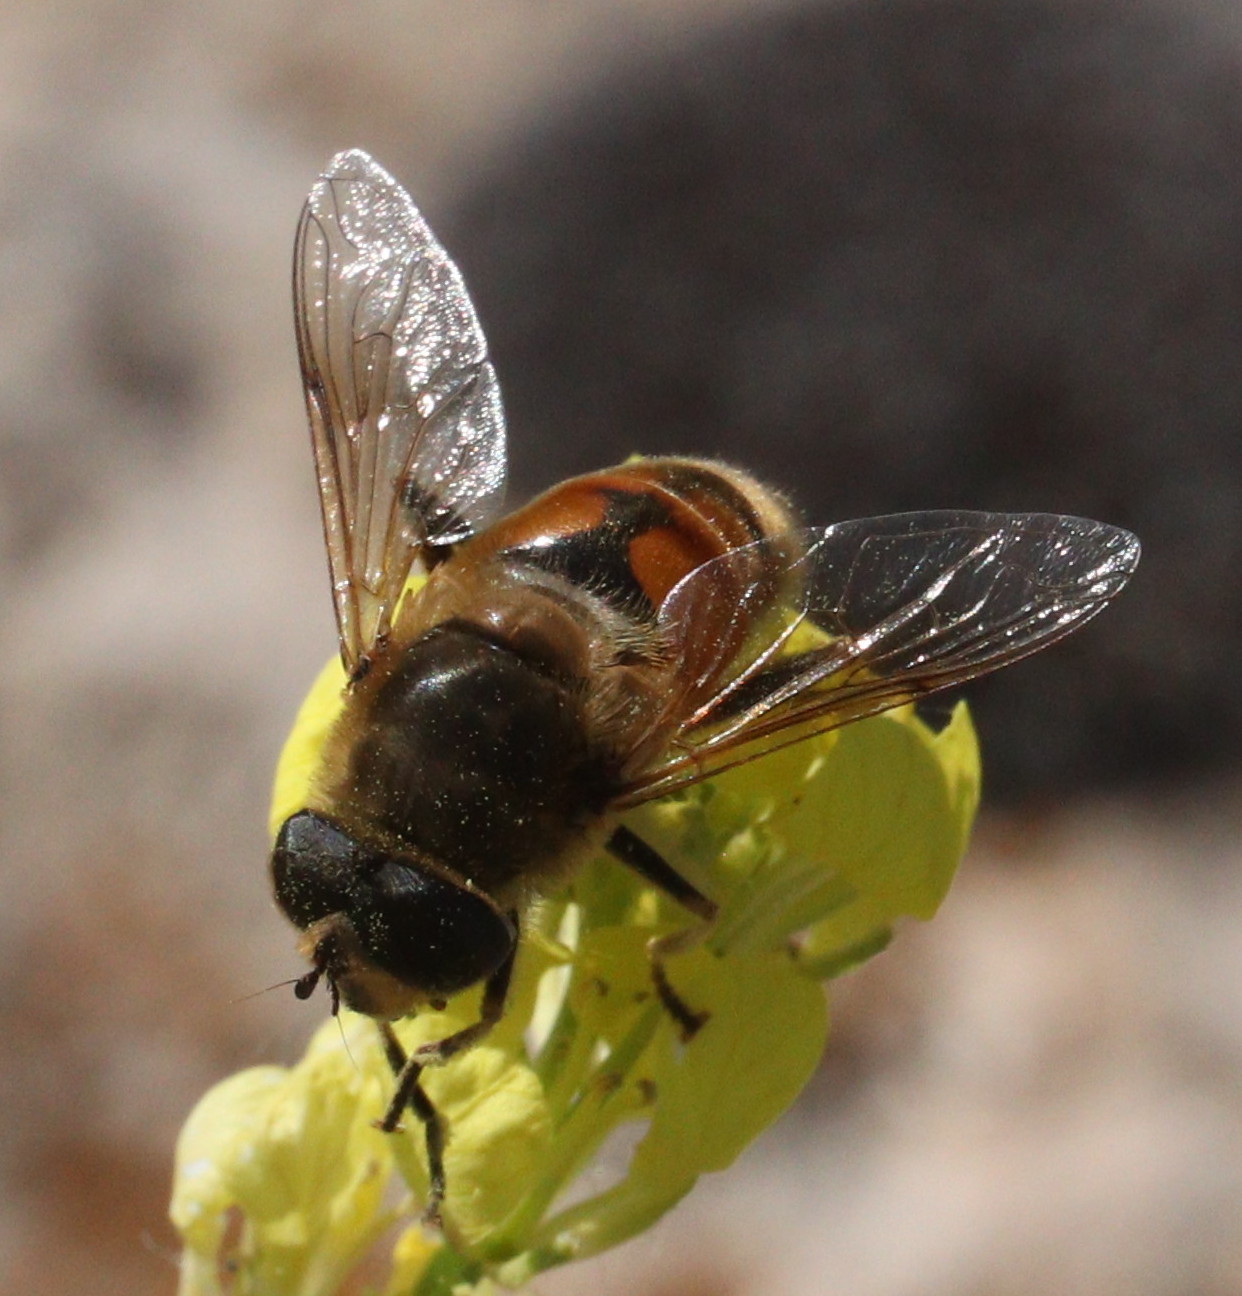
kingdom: Animalia
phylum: Arthropoda
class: Insecta
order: Diptera
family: Syrphidae
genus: Eristalis
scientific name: Eristalis tenax
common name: Drone fly
